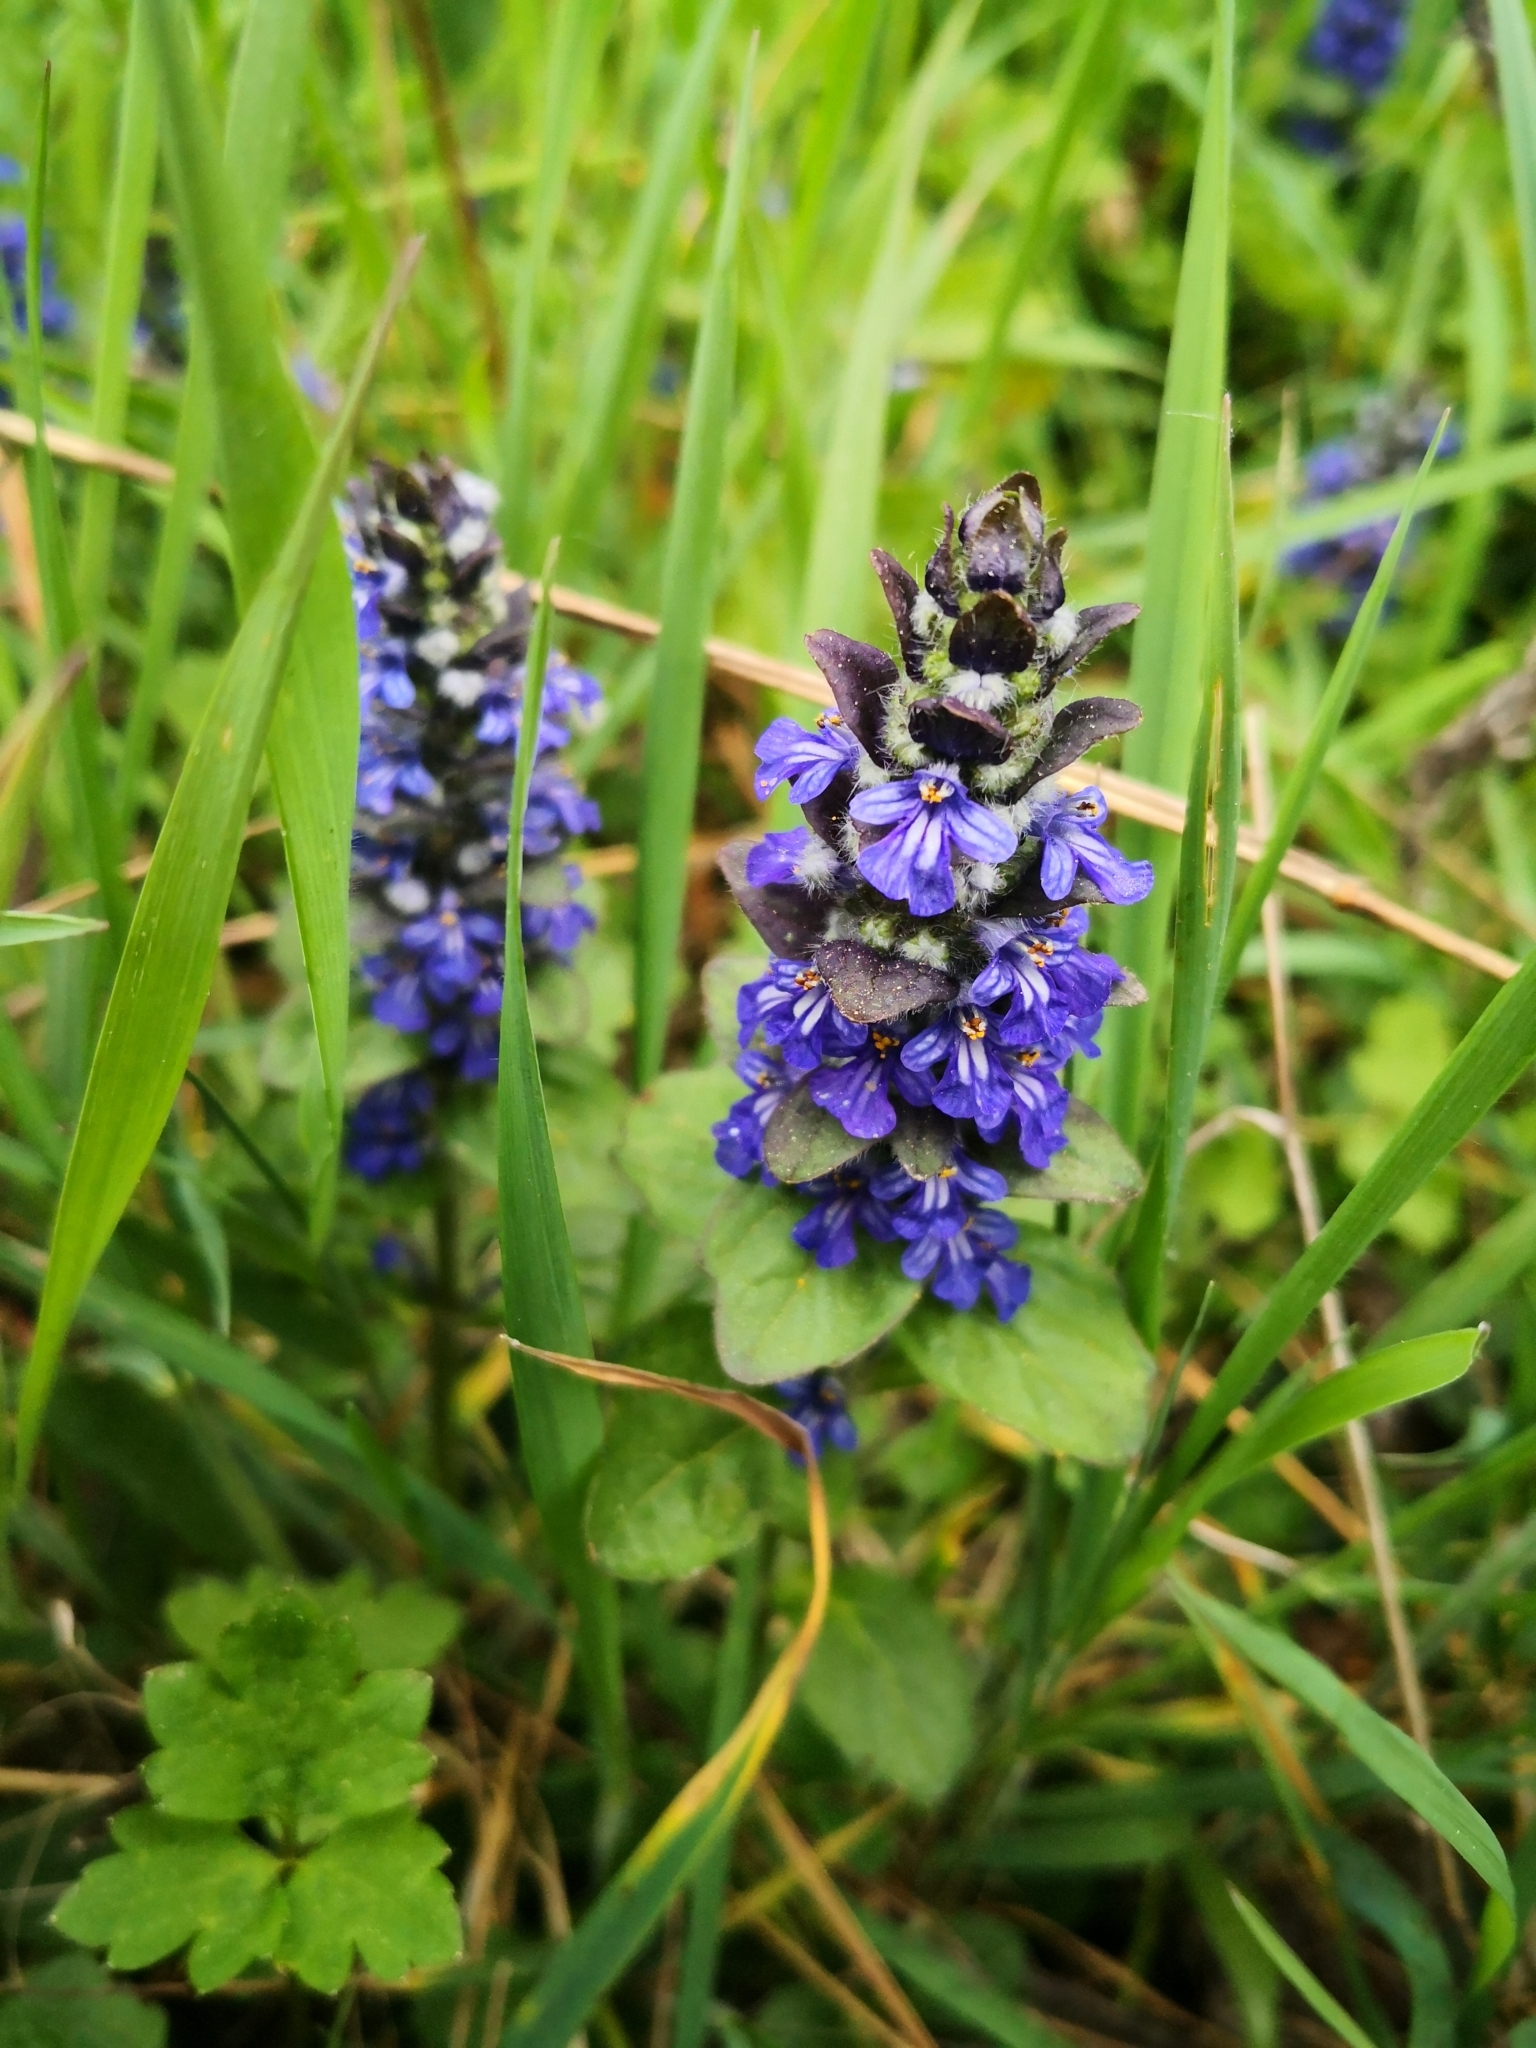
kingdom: Plantae
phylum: Tracheophyta
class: Magnoliopsida
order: Lamiales
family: Lamiaceae
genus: Ajuga
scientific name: Ajuga reptans
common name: Bugle
